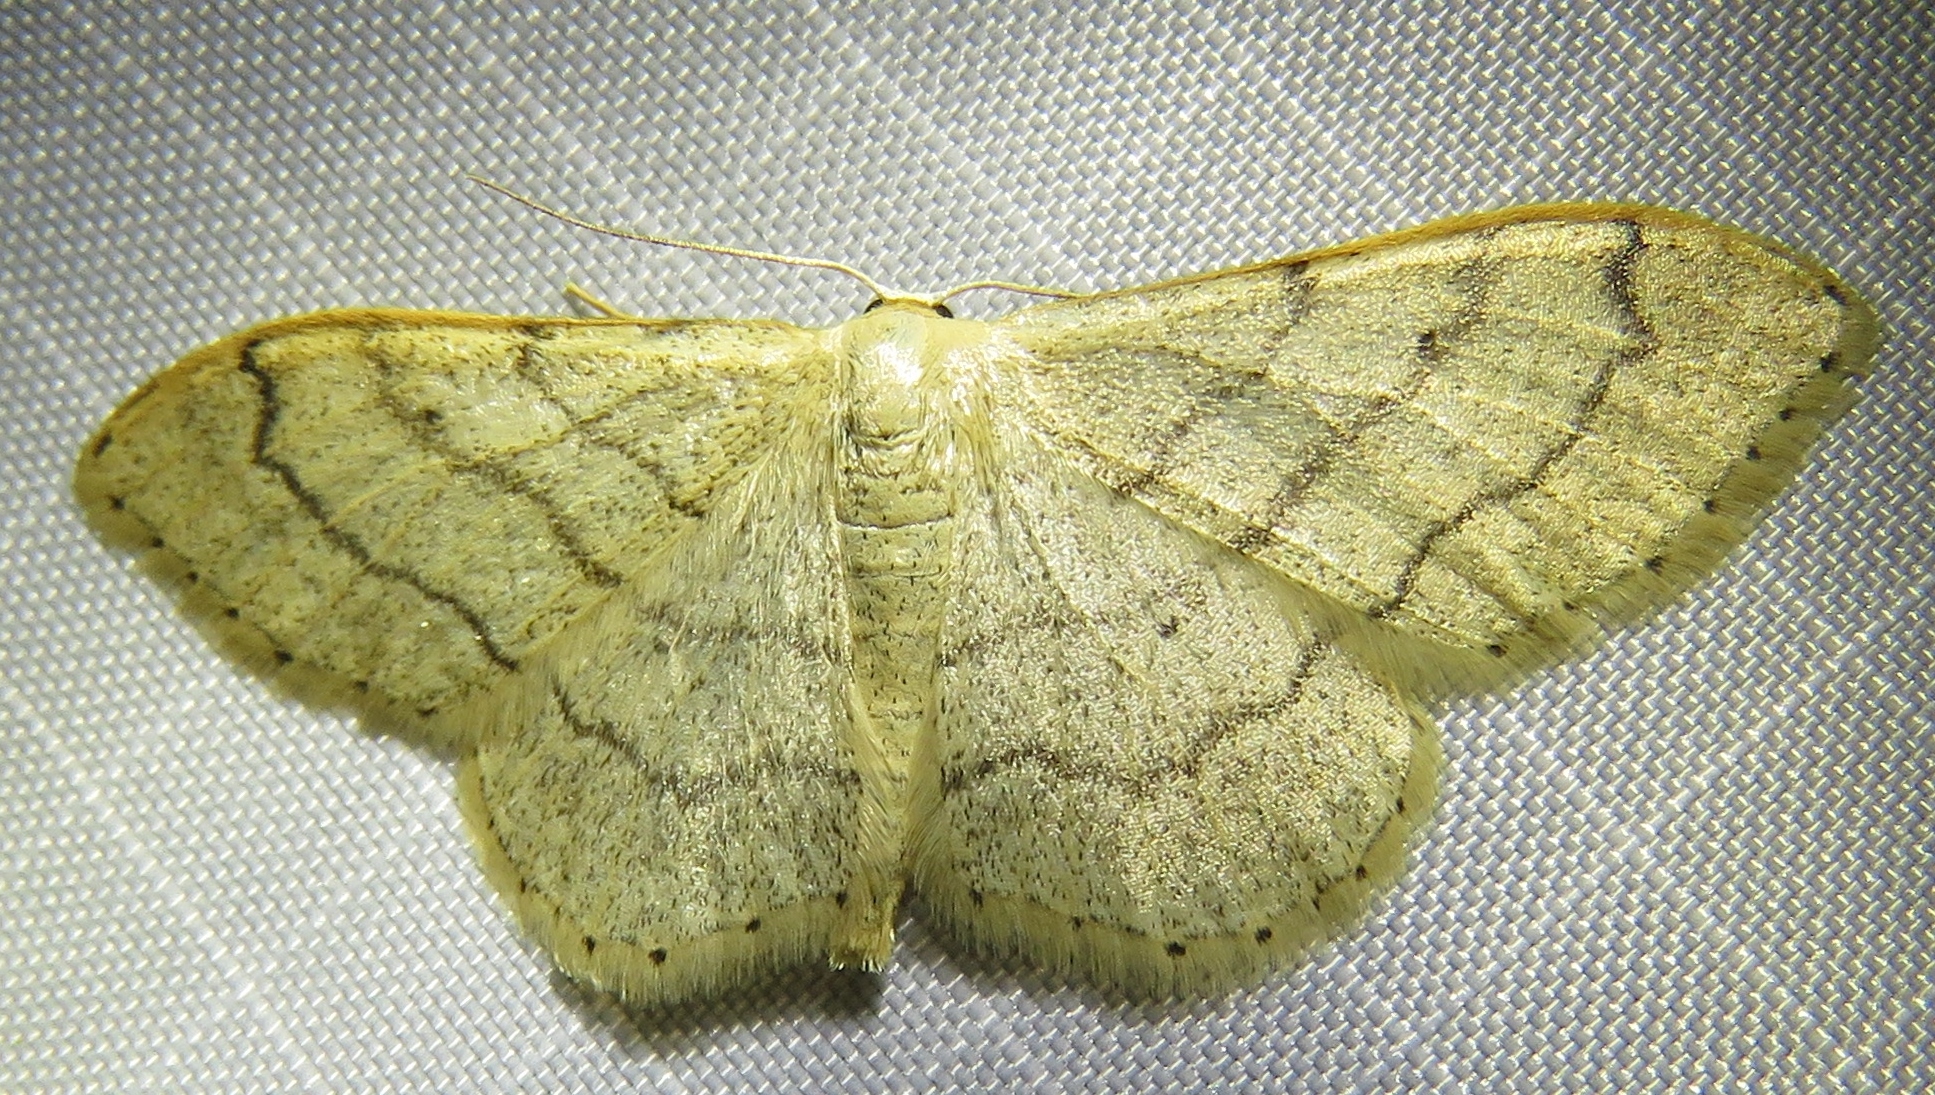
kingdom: Animalia
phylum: Arthropoda
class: Insecta
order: Lepidoptera
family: Geometridae
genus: Idaea
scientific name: Idaea aversata
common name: Riband wave
